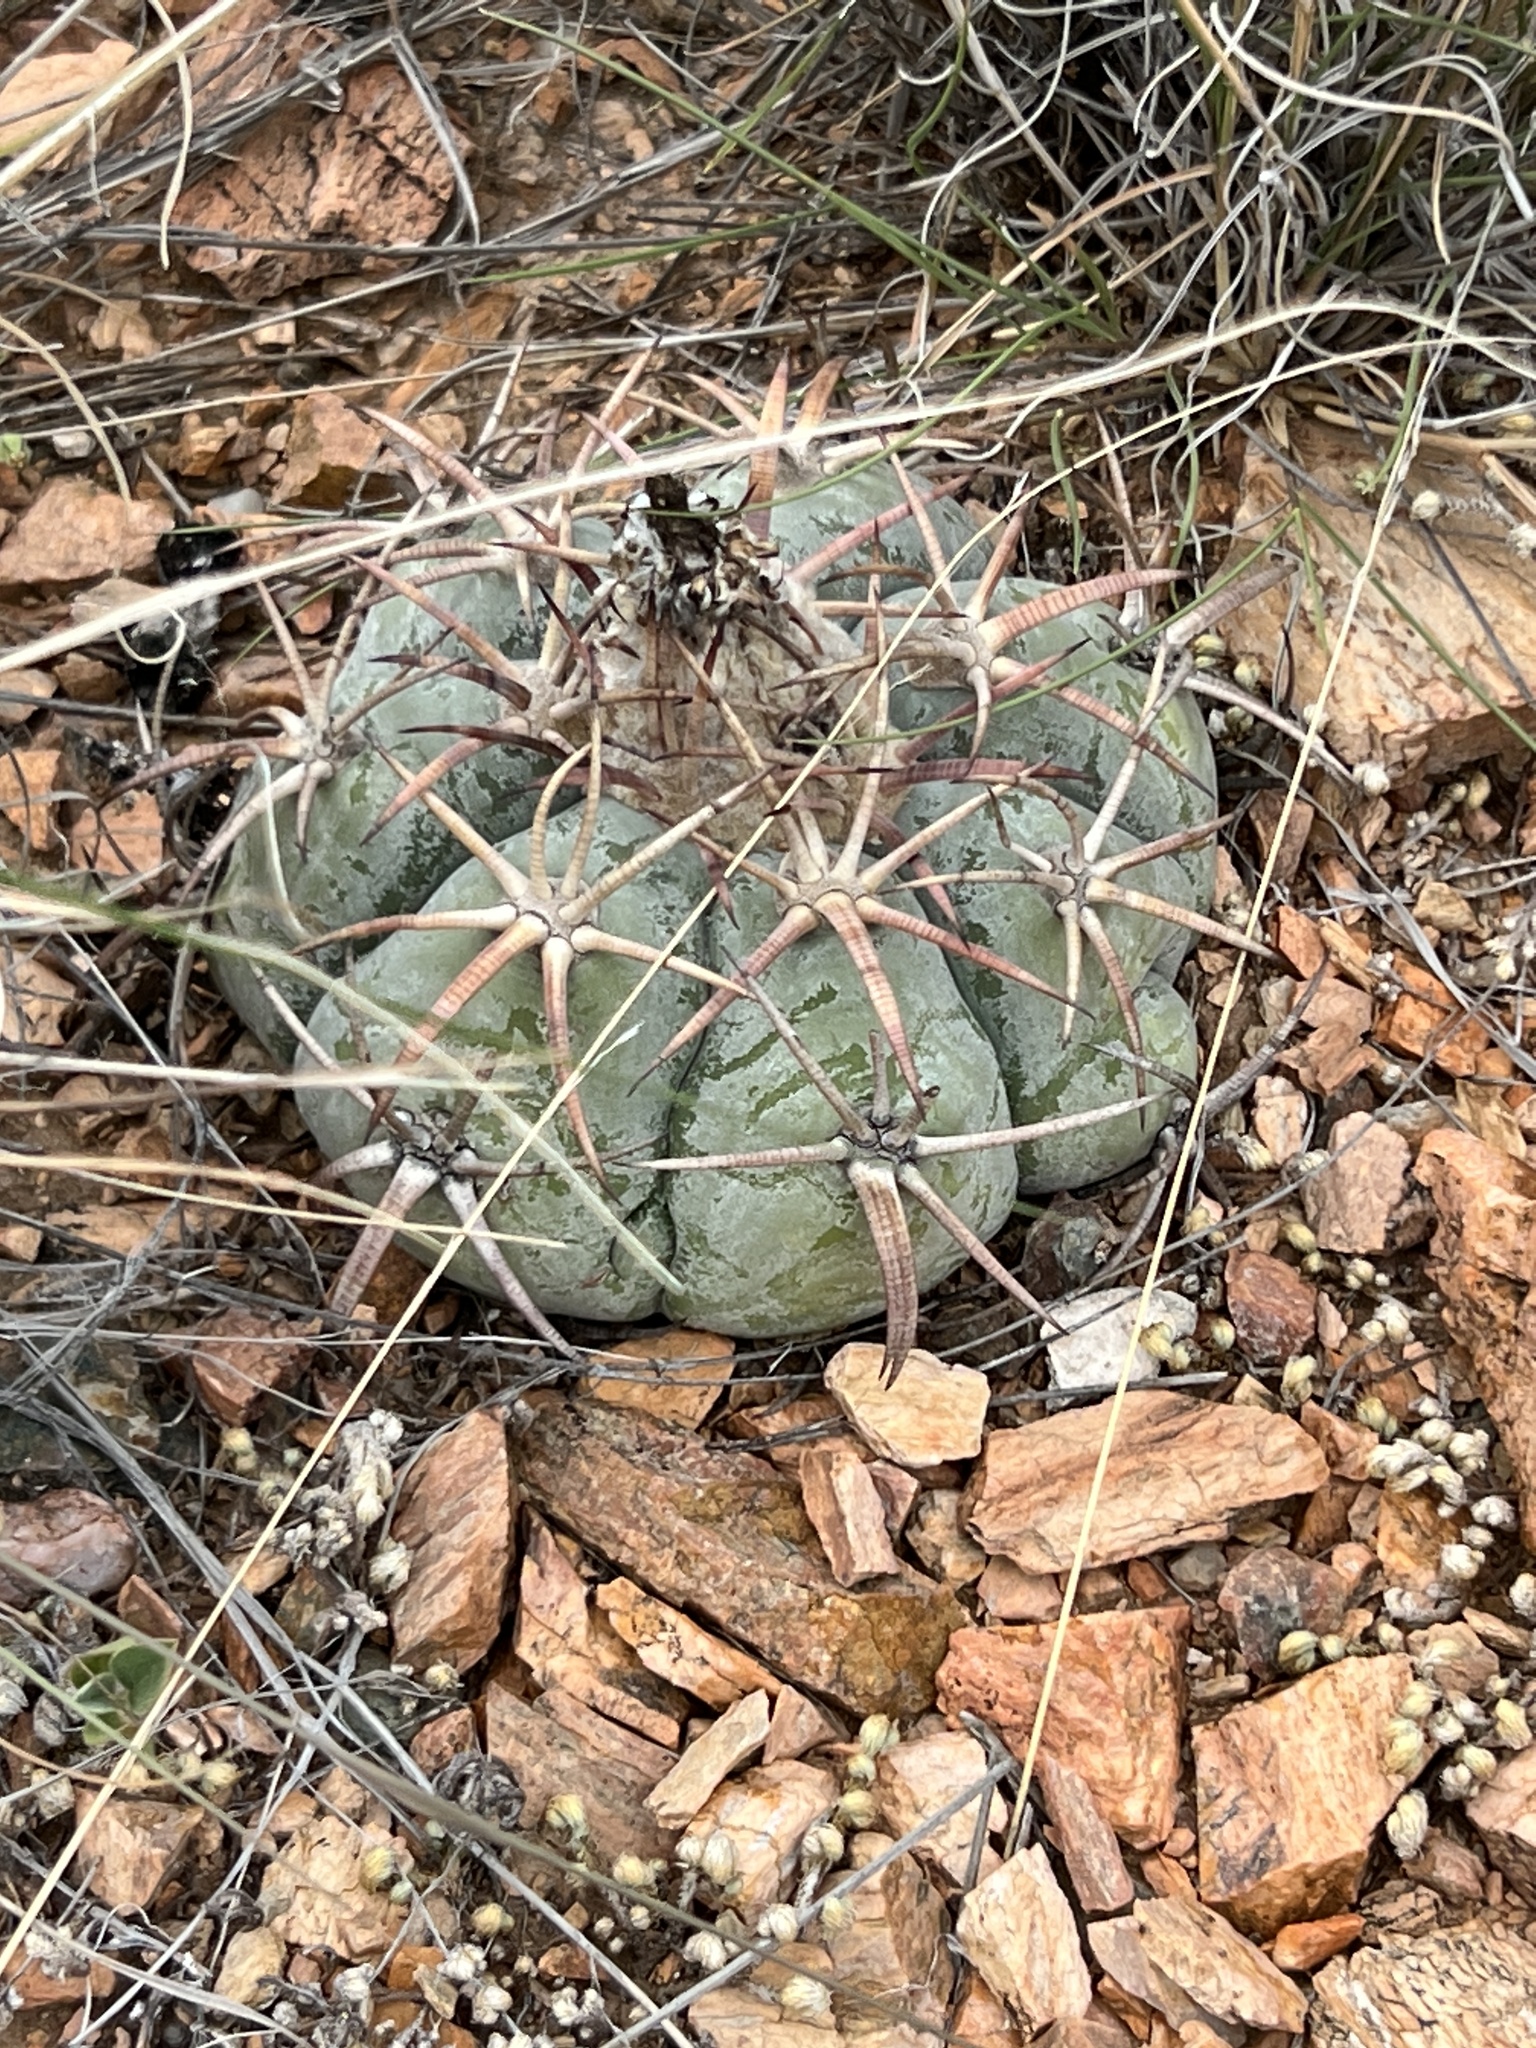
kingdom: Plantae
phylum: Tracheophyta
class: Magnoliopsida
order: Caryophyllales
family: Cactaceae
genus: Echinocactus
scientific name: Echinocactus horizonthalonius
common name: Devilshead
